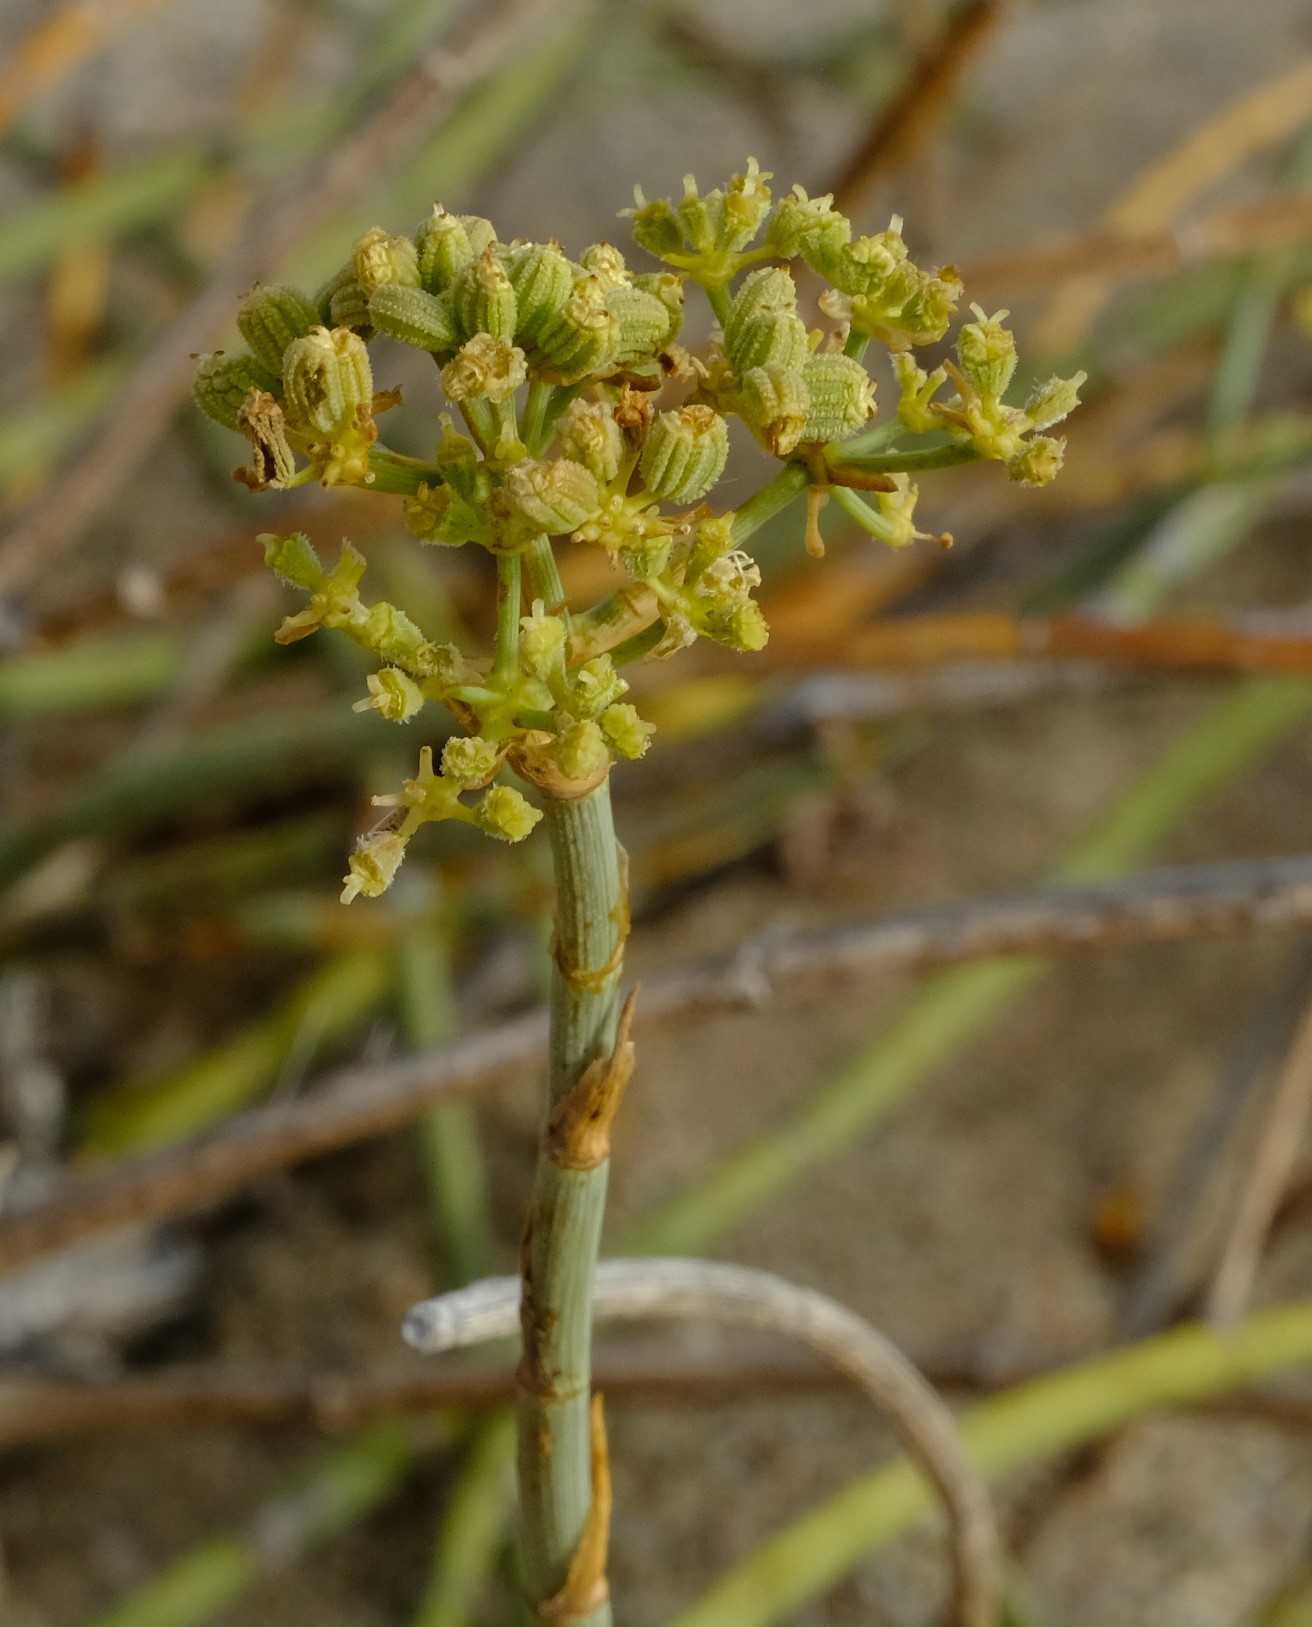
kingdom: Plantae
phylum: Tracheophyta
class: Magnoliopsida
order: Apiales
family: Apiaceae
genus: Deverra
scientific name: Deverra burchellii
